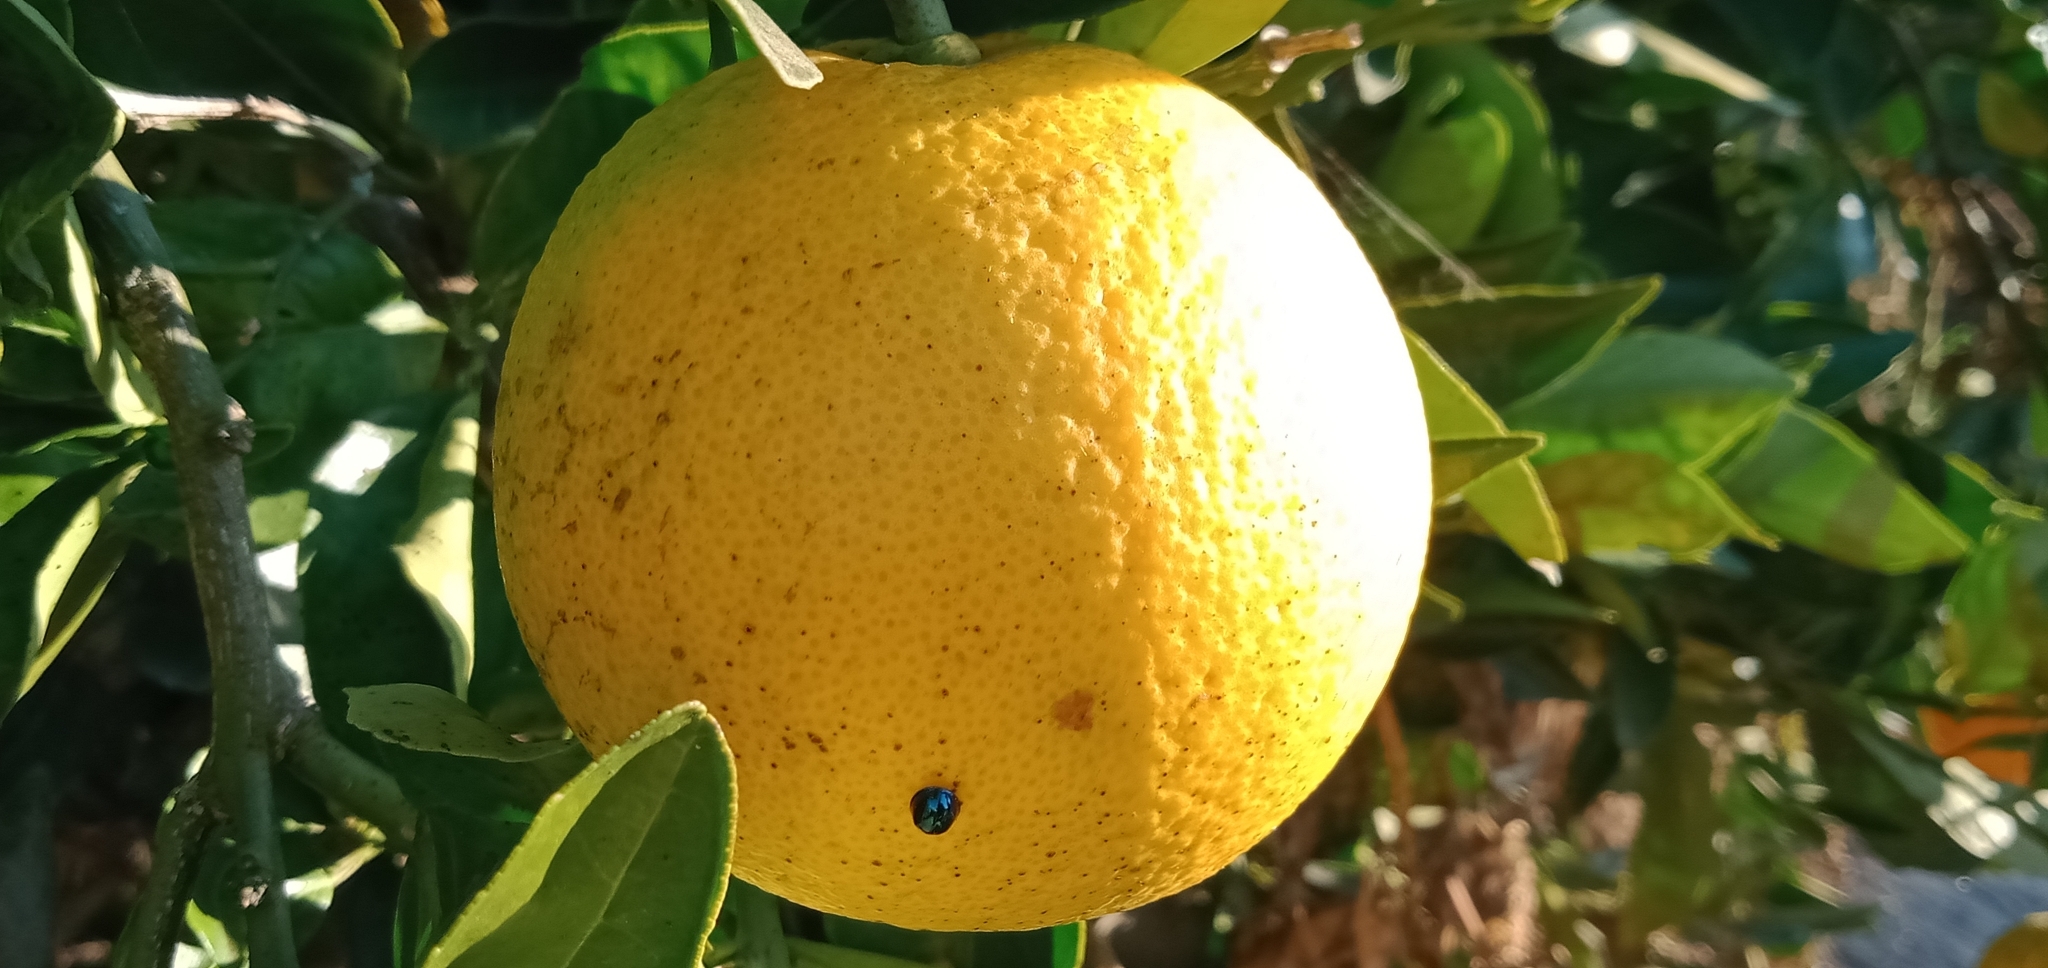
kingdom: Animalia
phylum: Arthropoda
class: Insecta
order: Coleoptera
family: Coccinellidae
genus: Halmus
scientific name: Halmus chalybeus
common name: Steel blue ladybird beetle
